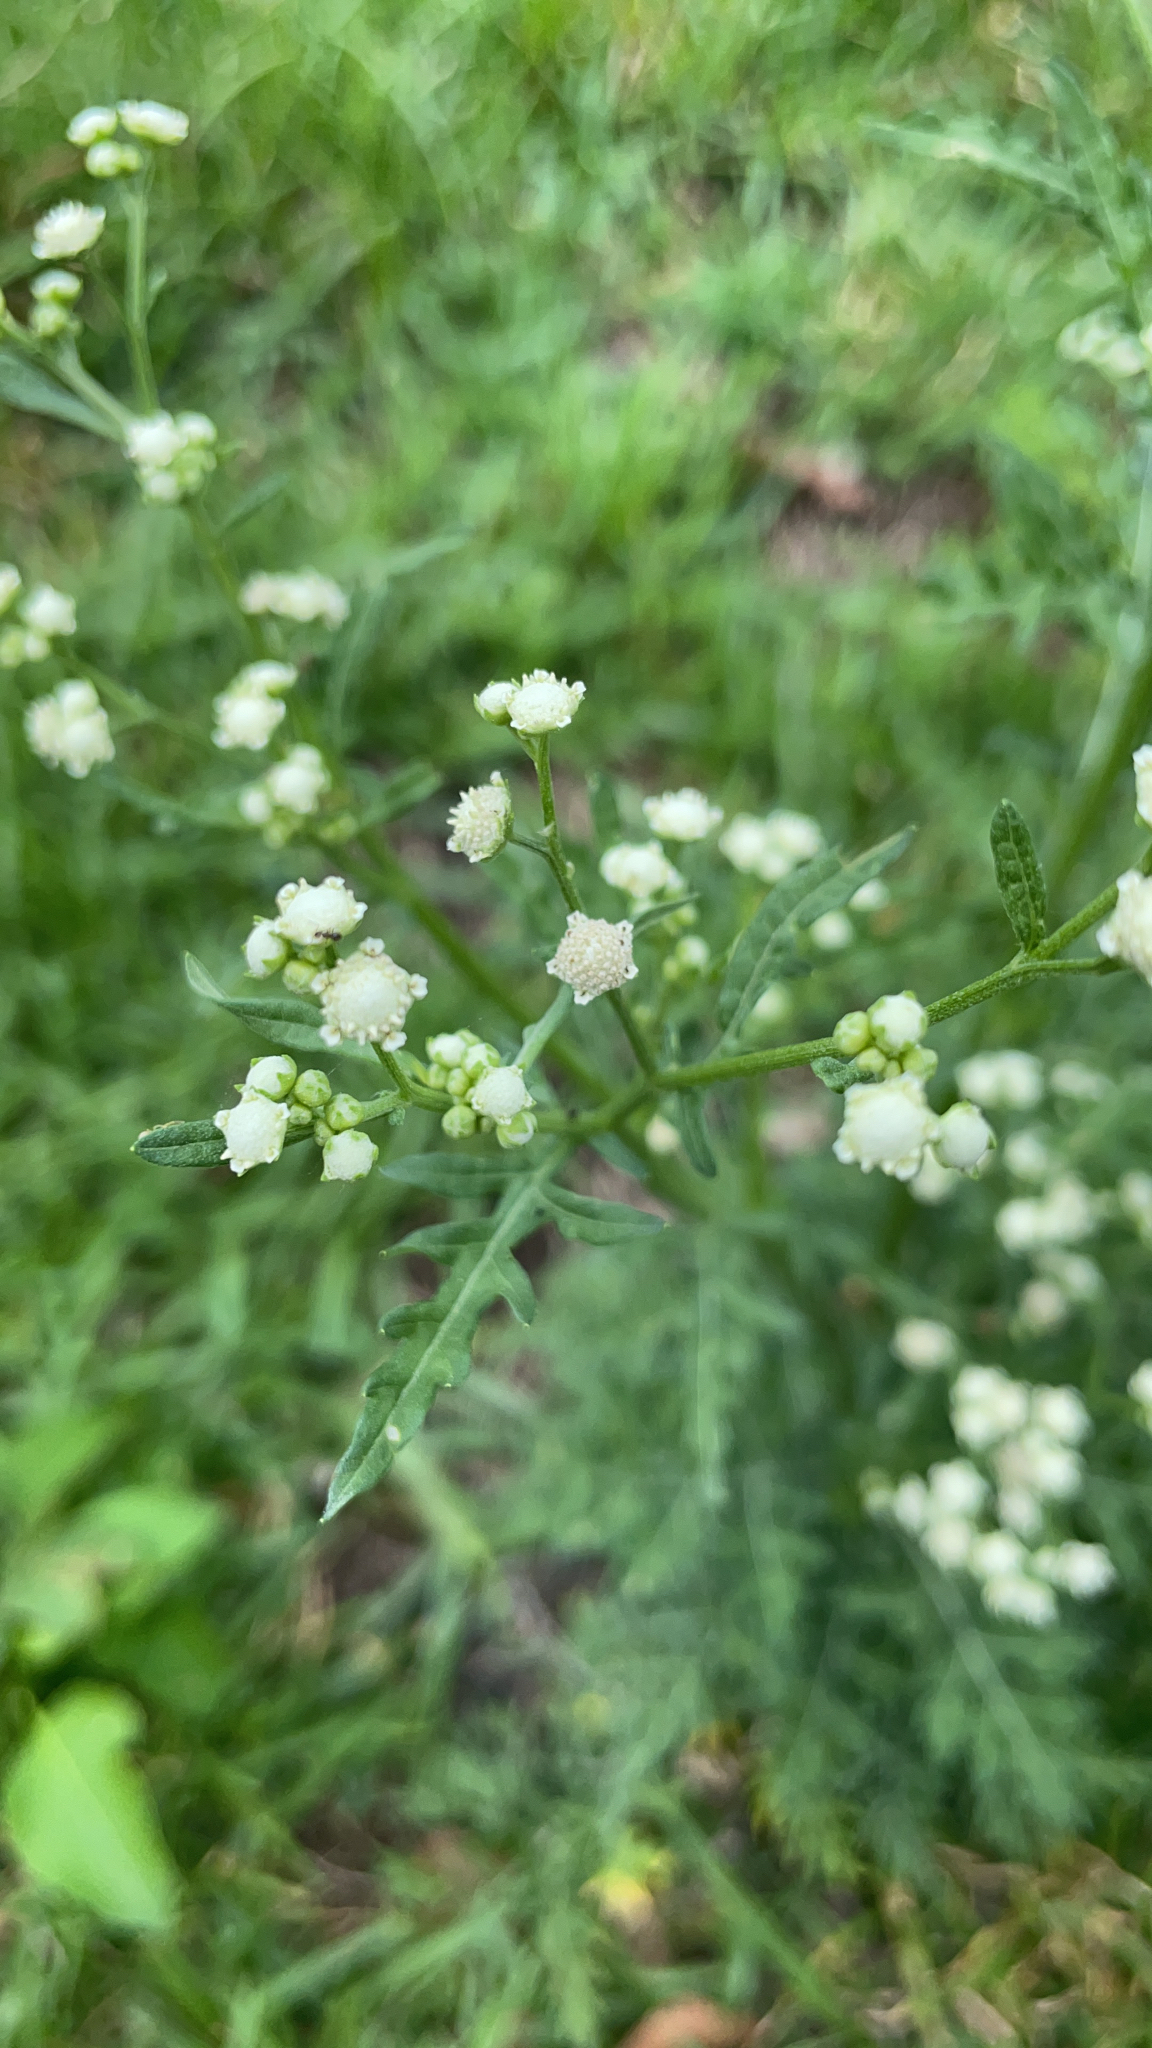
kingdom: Plantae
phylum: Tracheophyta
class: Magnoliopsida
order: Asterales
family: Asteraceae
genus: Parthenium
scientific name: Parthenium hysterophorus
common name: Santa maria feverfew
